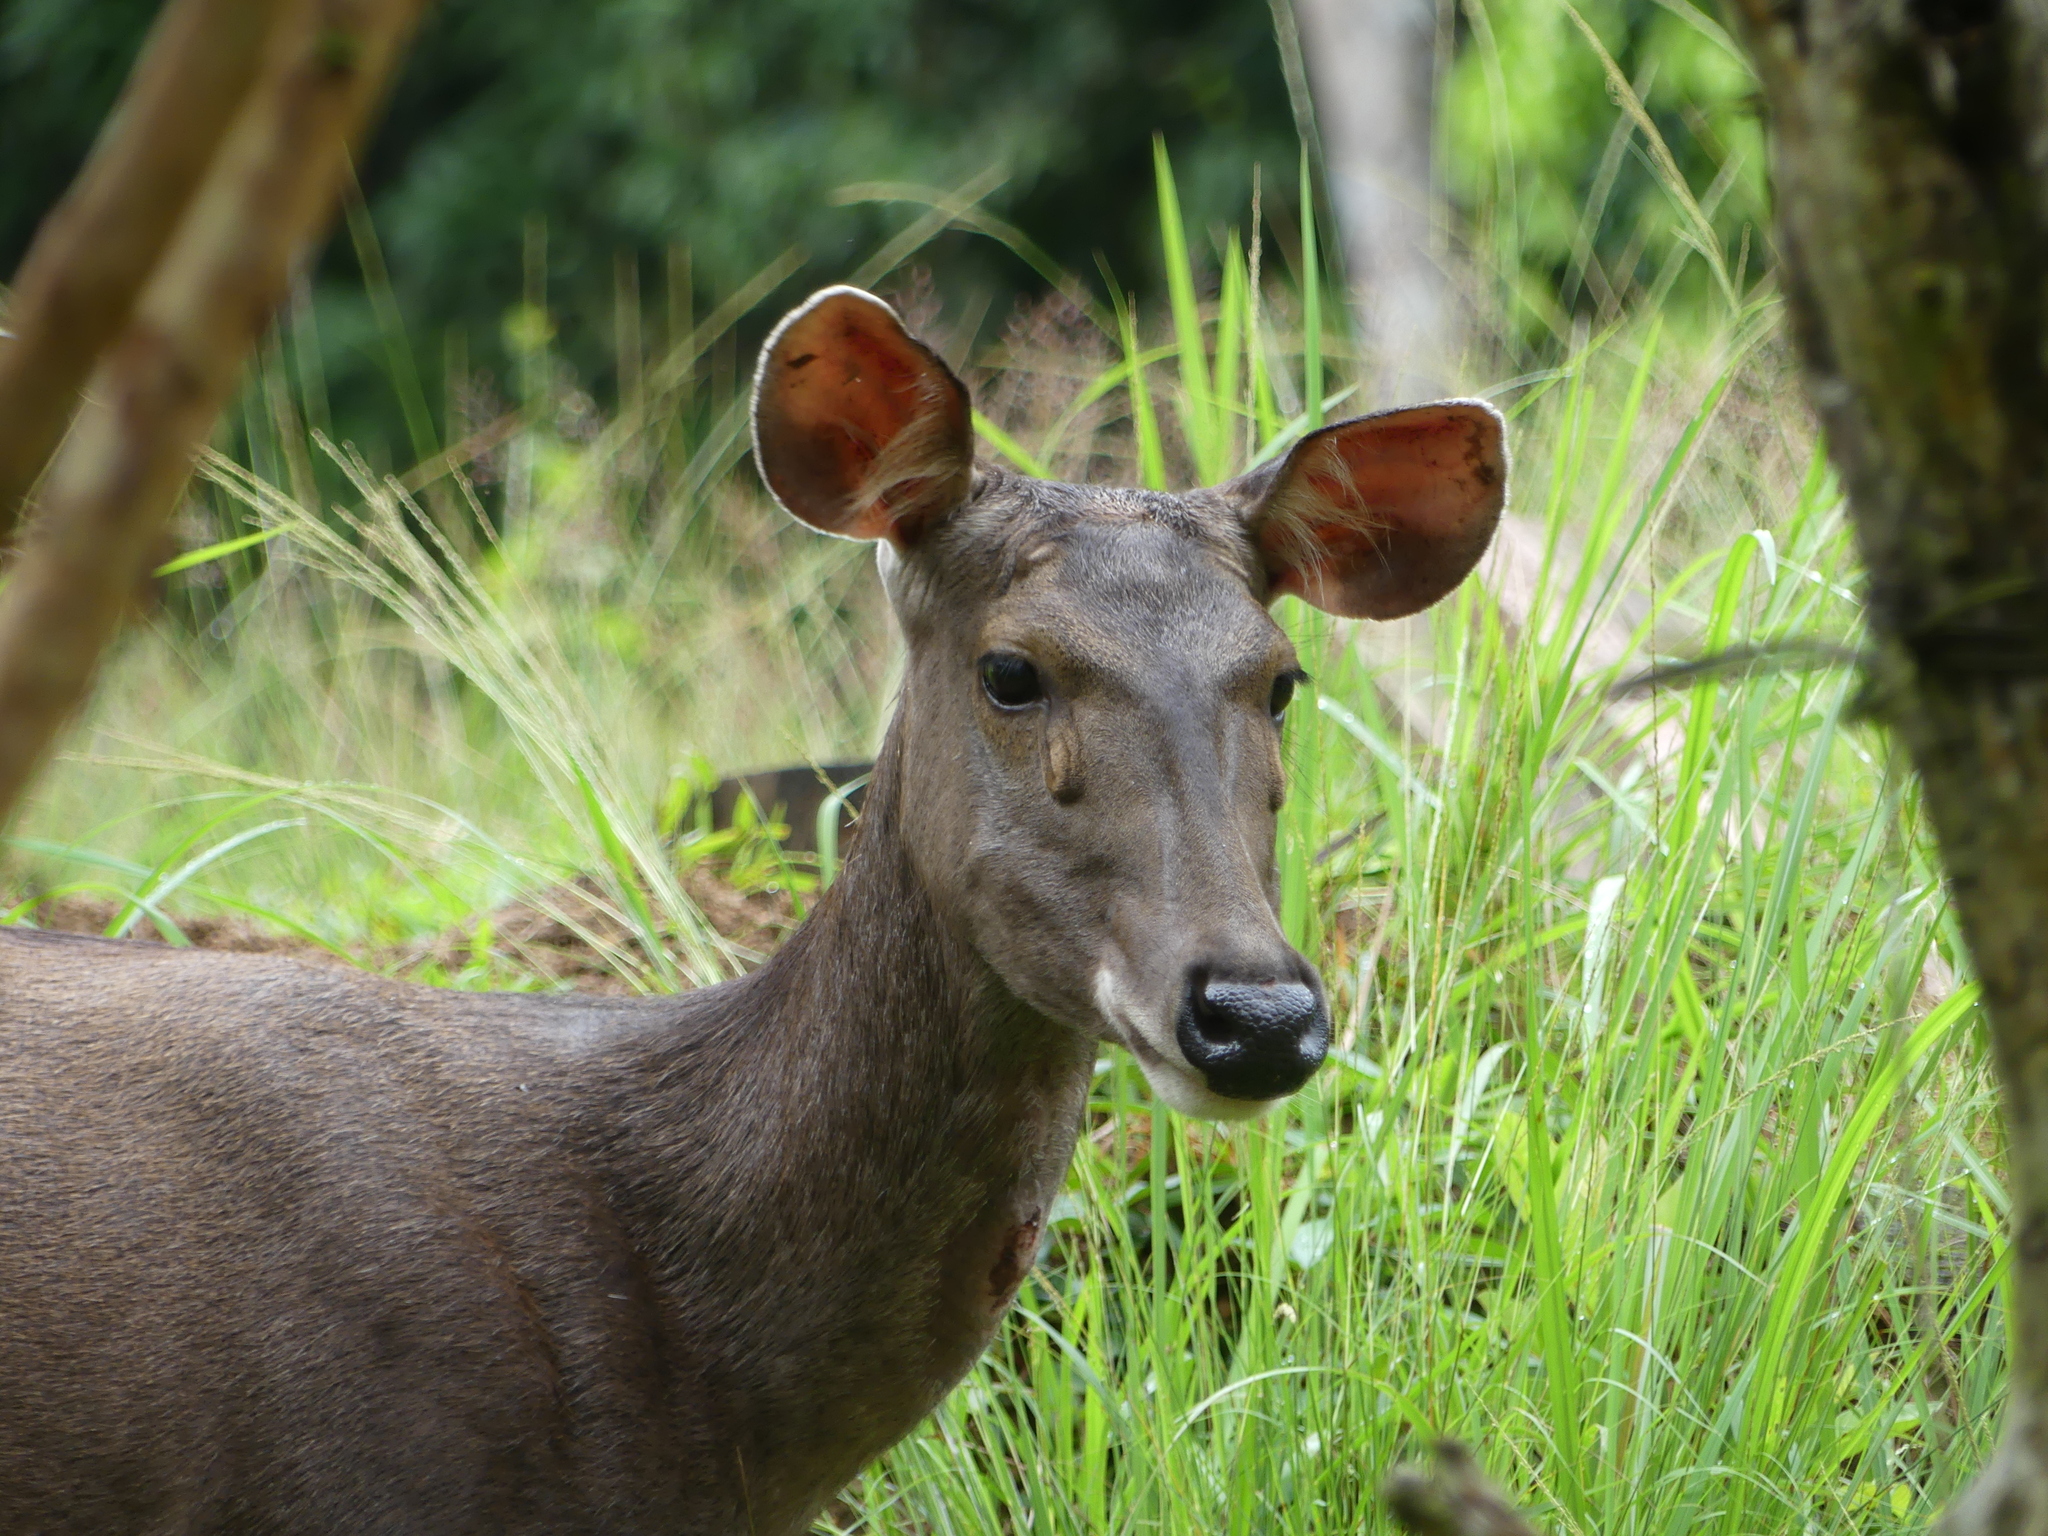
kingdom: Animalia
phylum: Chordata
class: Mammalia
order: Artiodactyla
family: Cervidae
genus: Rusa
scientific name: Rusa unicolor
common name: Sambar
